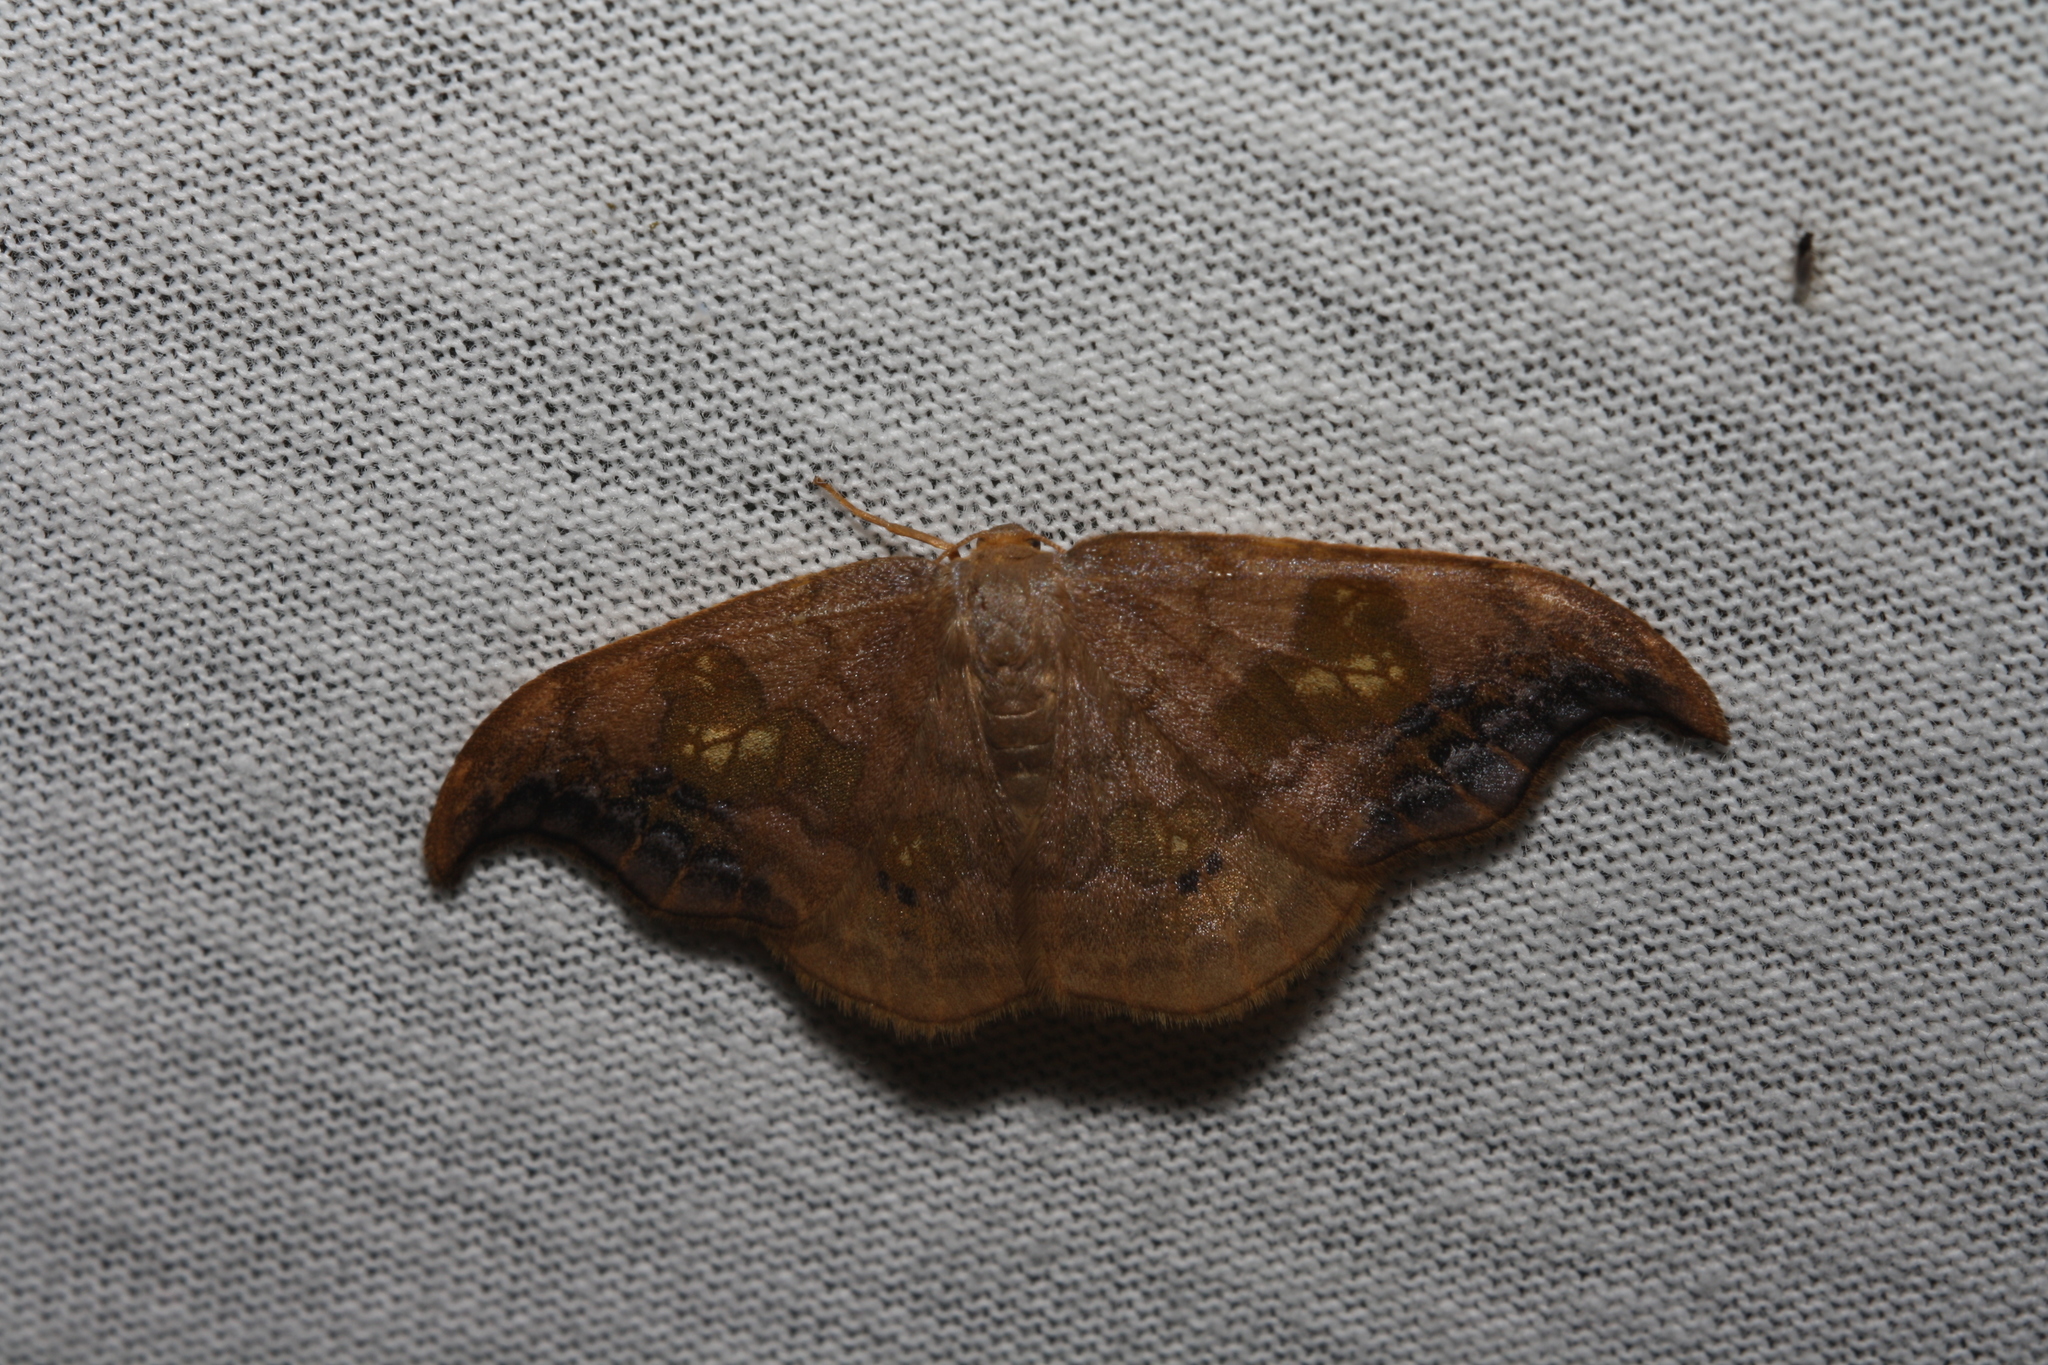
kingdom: Animalia
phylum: Arthropoda
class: Insecta
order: Lepidoptera
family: Drepanidae
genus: Sabra
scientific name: Sabra harpagula
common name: Scarce hook-tip
